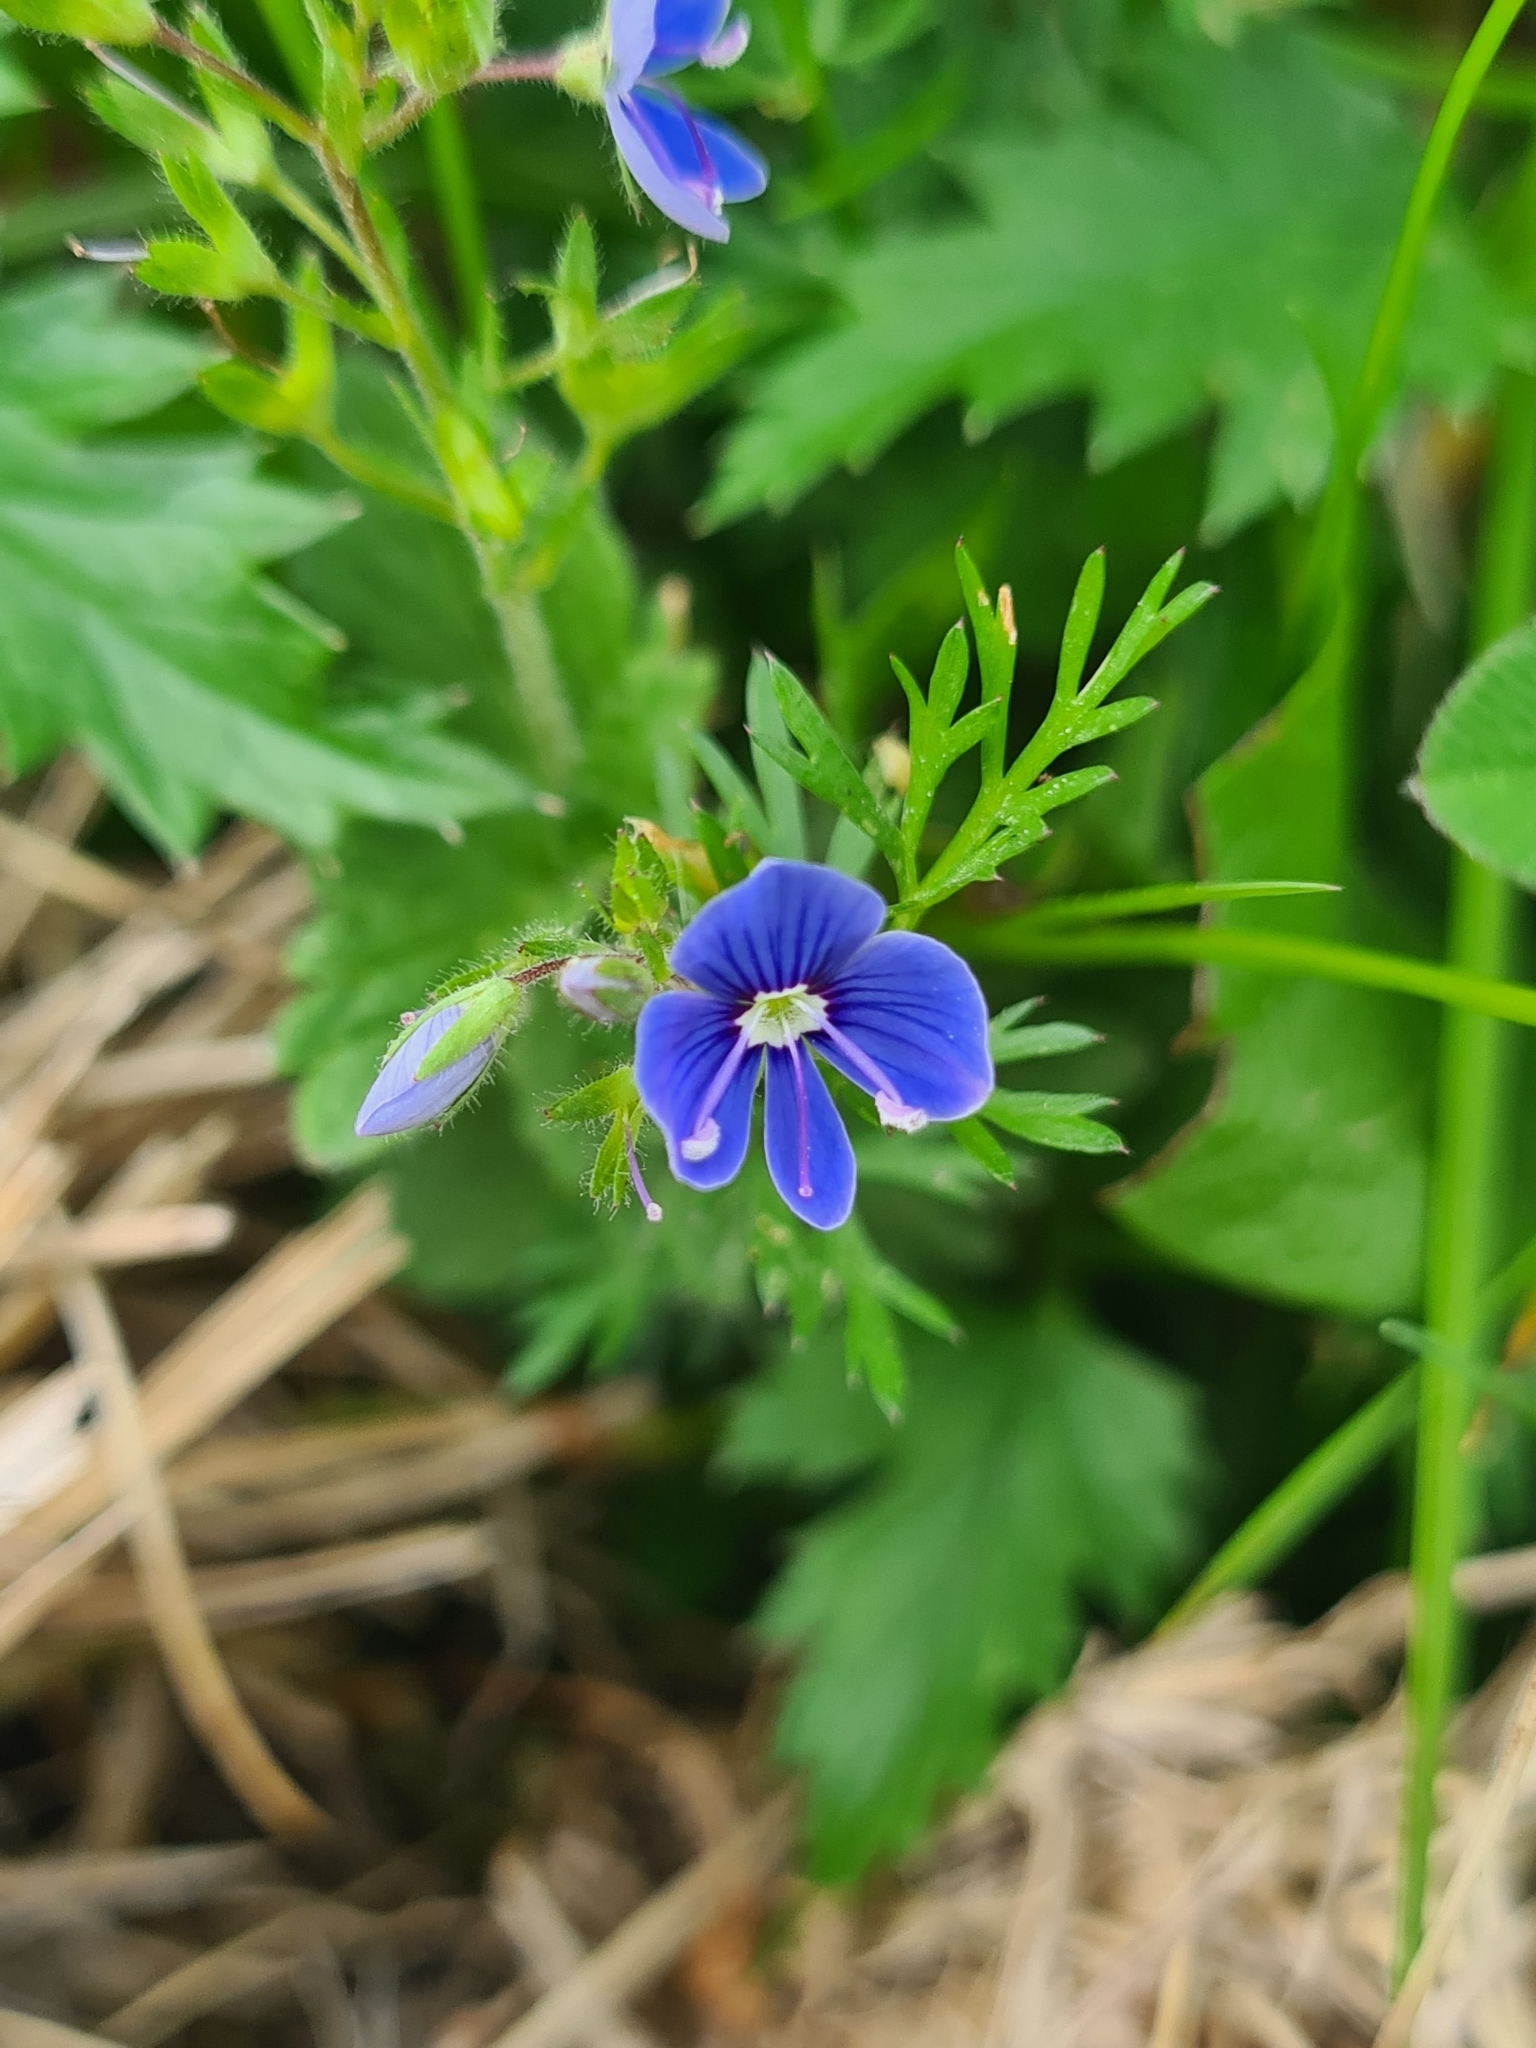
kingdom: Plantae
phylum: Tracheophyta
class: Magnoliopsida
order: Lamiales
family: Plantaginaceae
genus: Veronica
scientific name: Veronica chamaedrys
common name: Germander speedwell
